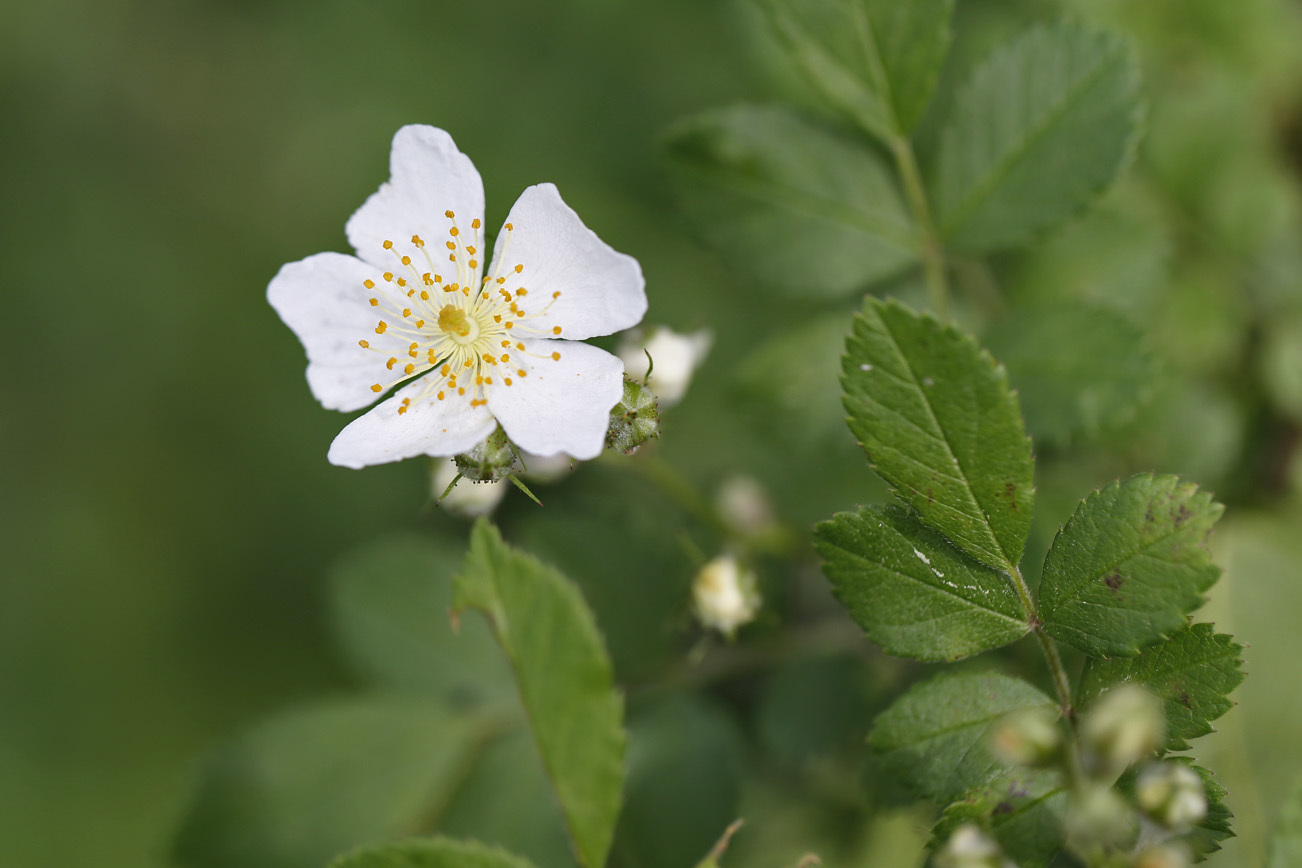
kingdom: Plantae
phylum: Tracheophyta
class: Magnoliopsida
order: Rosales
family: Rosaceae
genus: Rosa
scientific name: Rosa multiflora
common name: Multiflora rose
